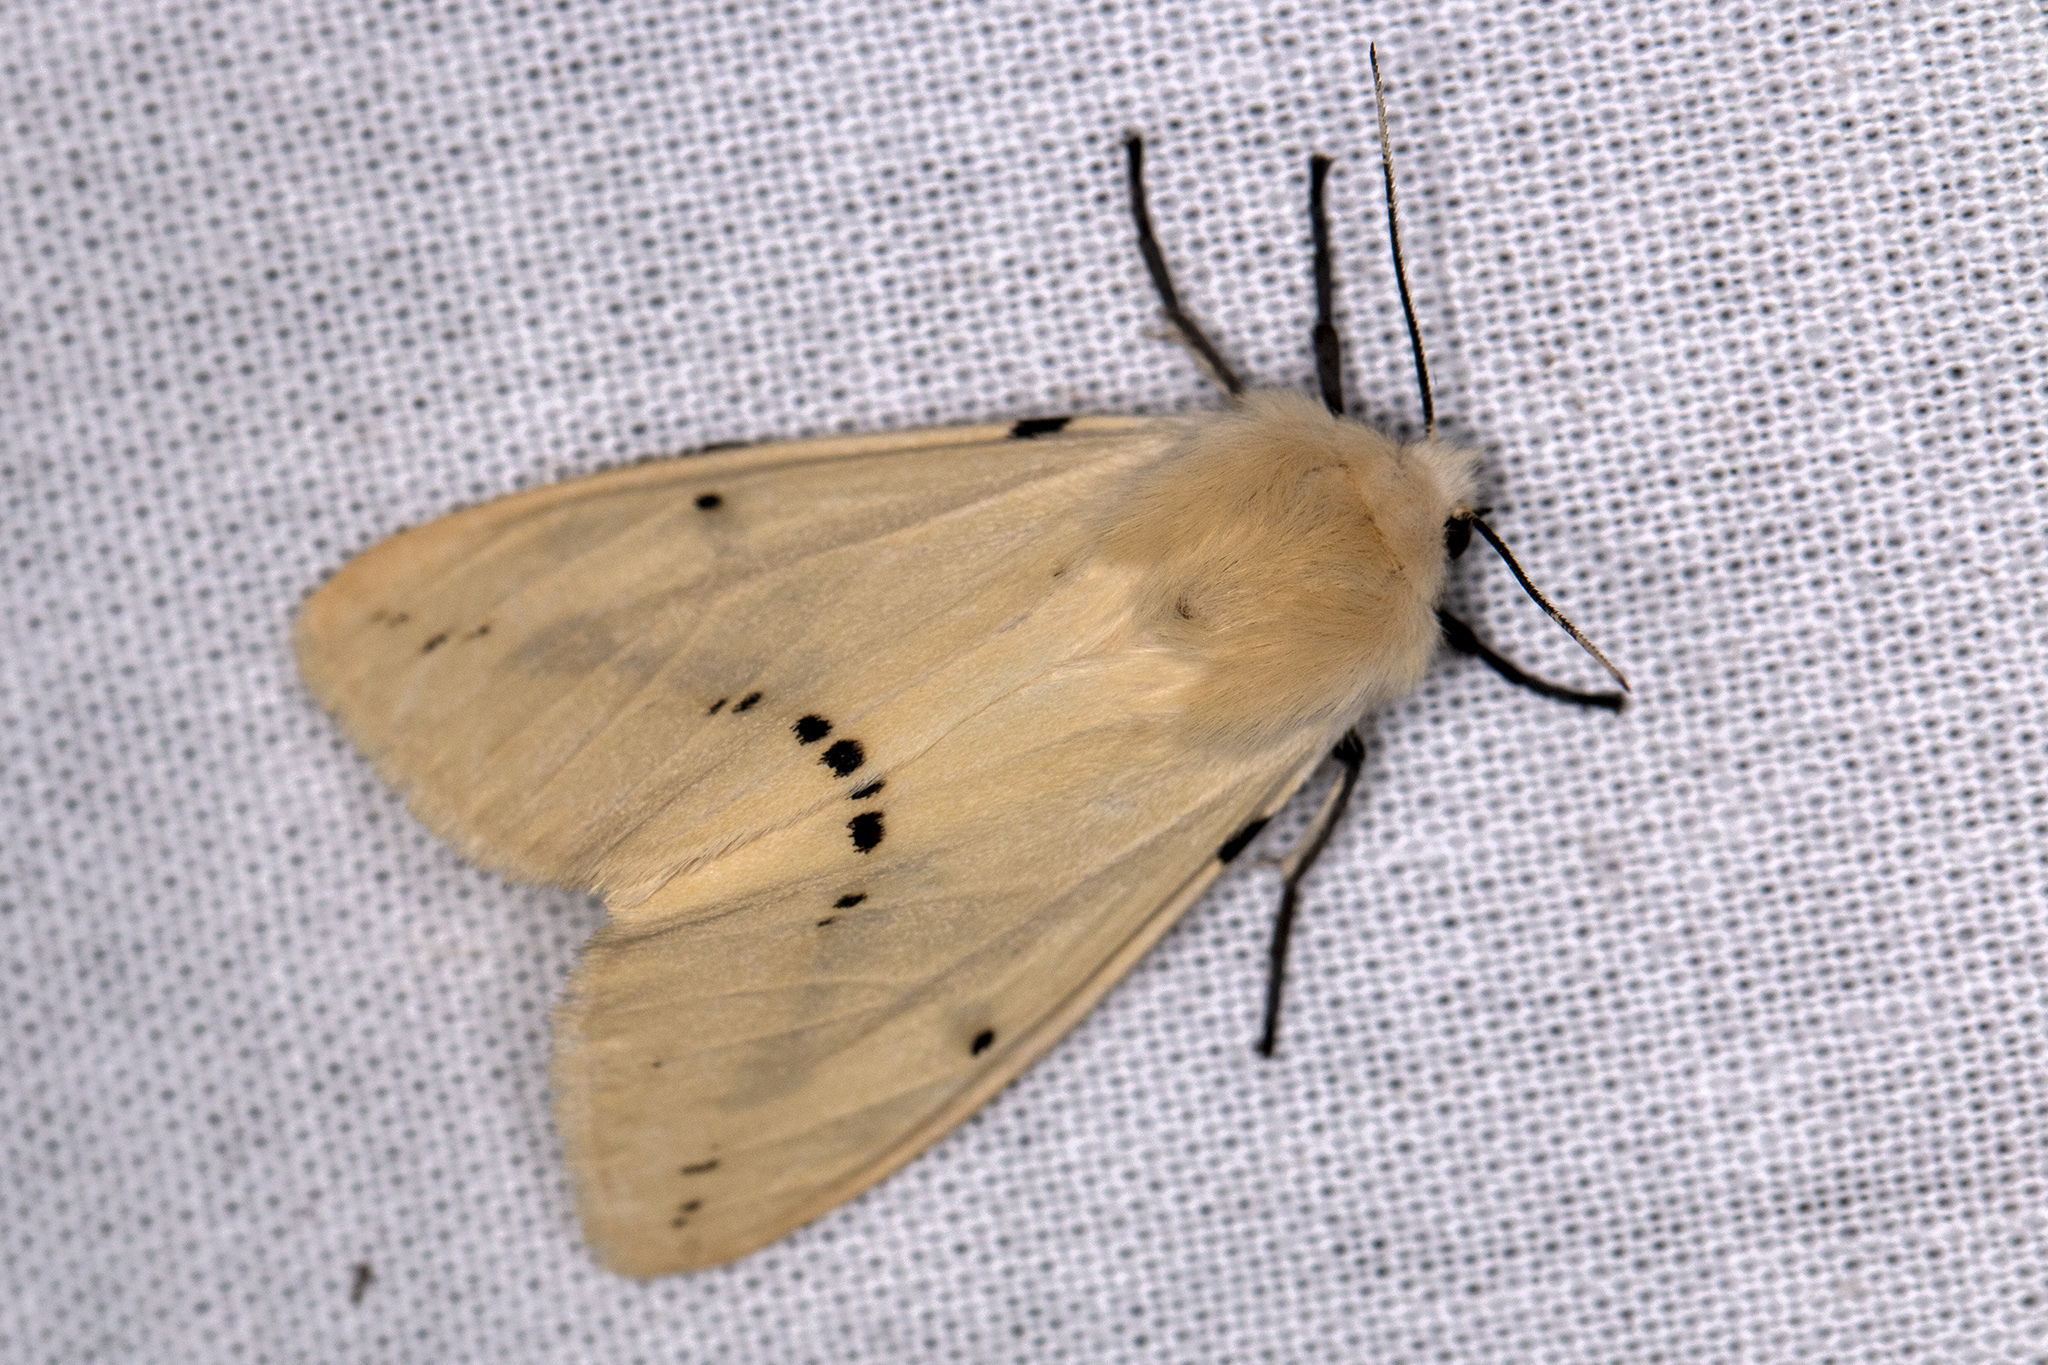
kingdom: Animalia
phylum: Arthropoda
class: Insecta
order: Lepidoptera
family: Erebidae
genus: Spilarctia
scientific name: Spilarctia lutea
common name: Buff ermine
